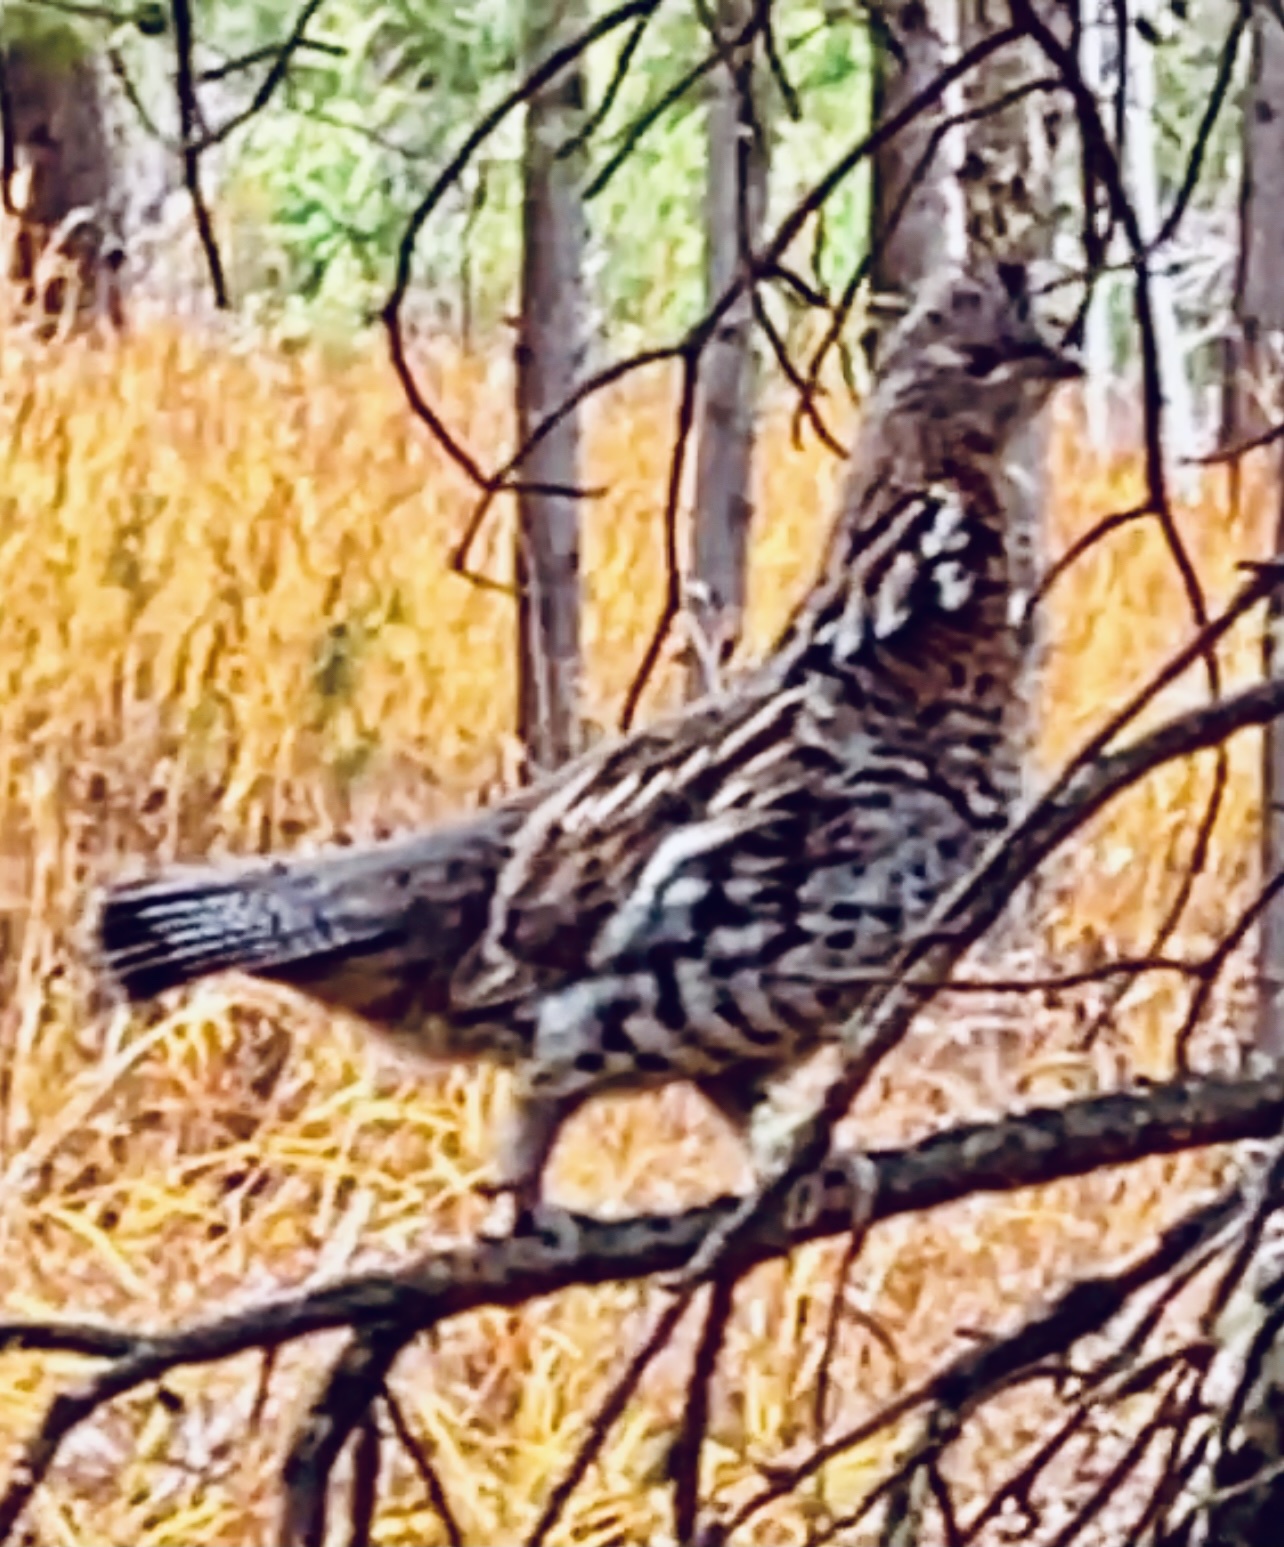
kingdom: Animalia
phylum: Chordata
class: Aves
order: Galliformes
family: Phasianidae
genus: Bonasa
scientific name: Bonasa umbellus
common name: Ruffed grouse
